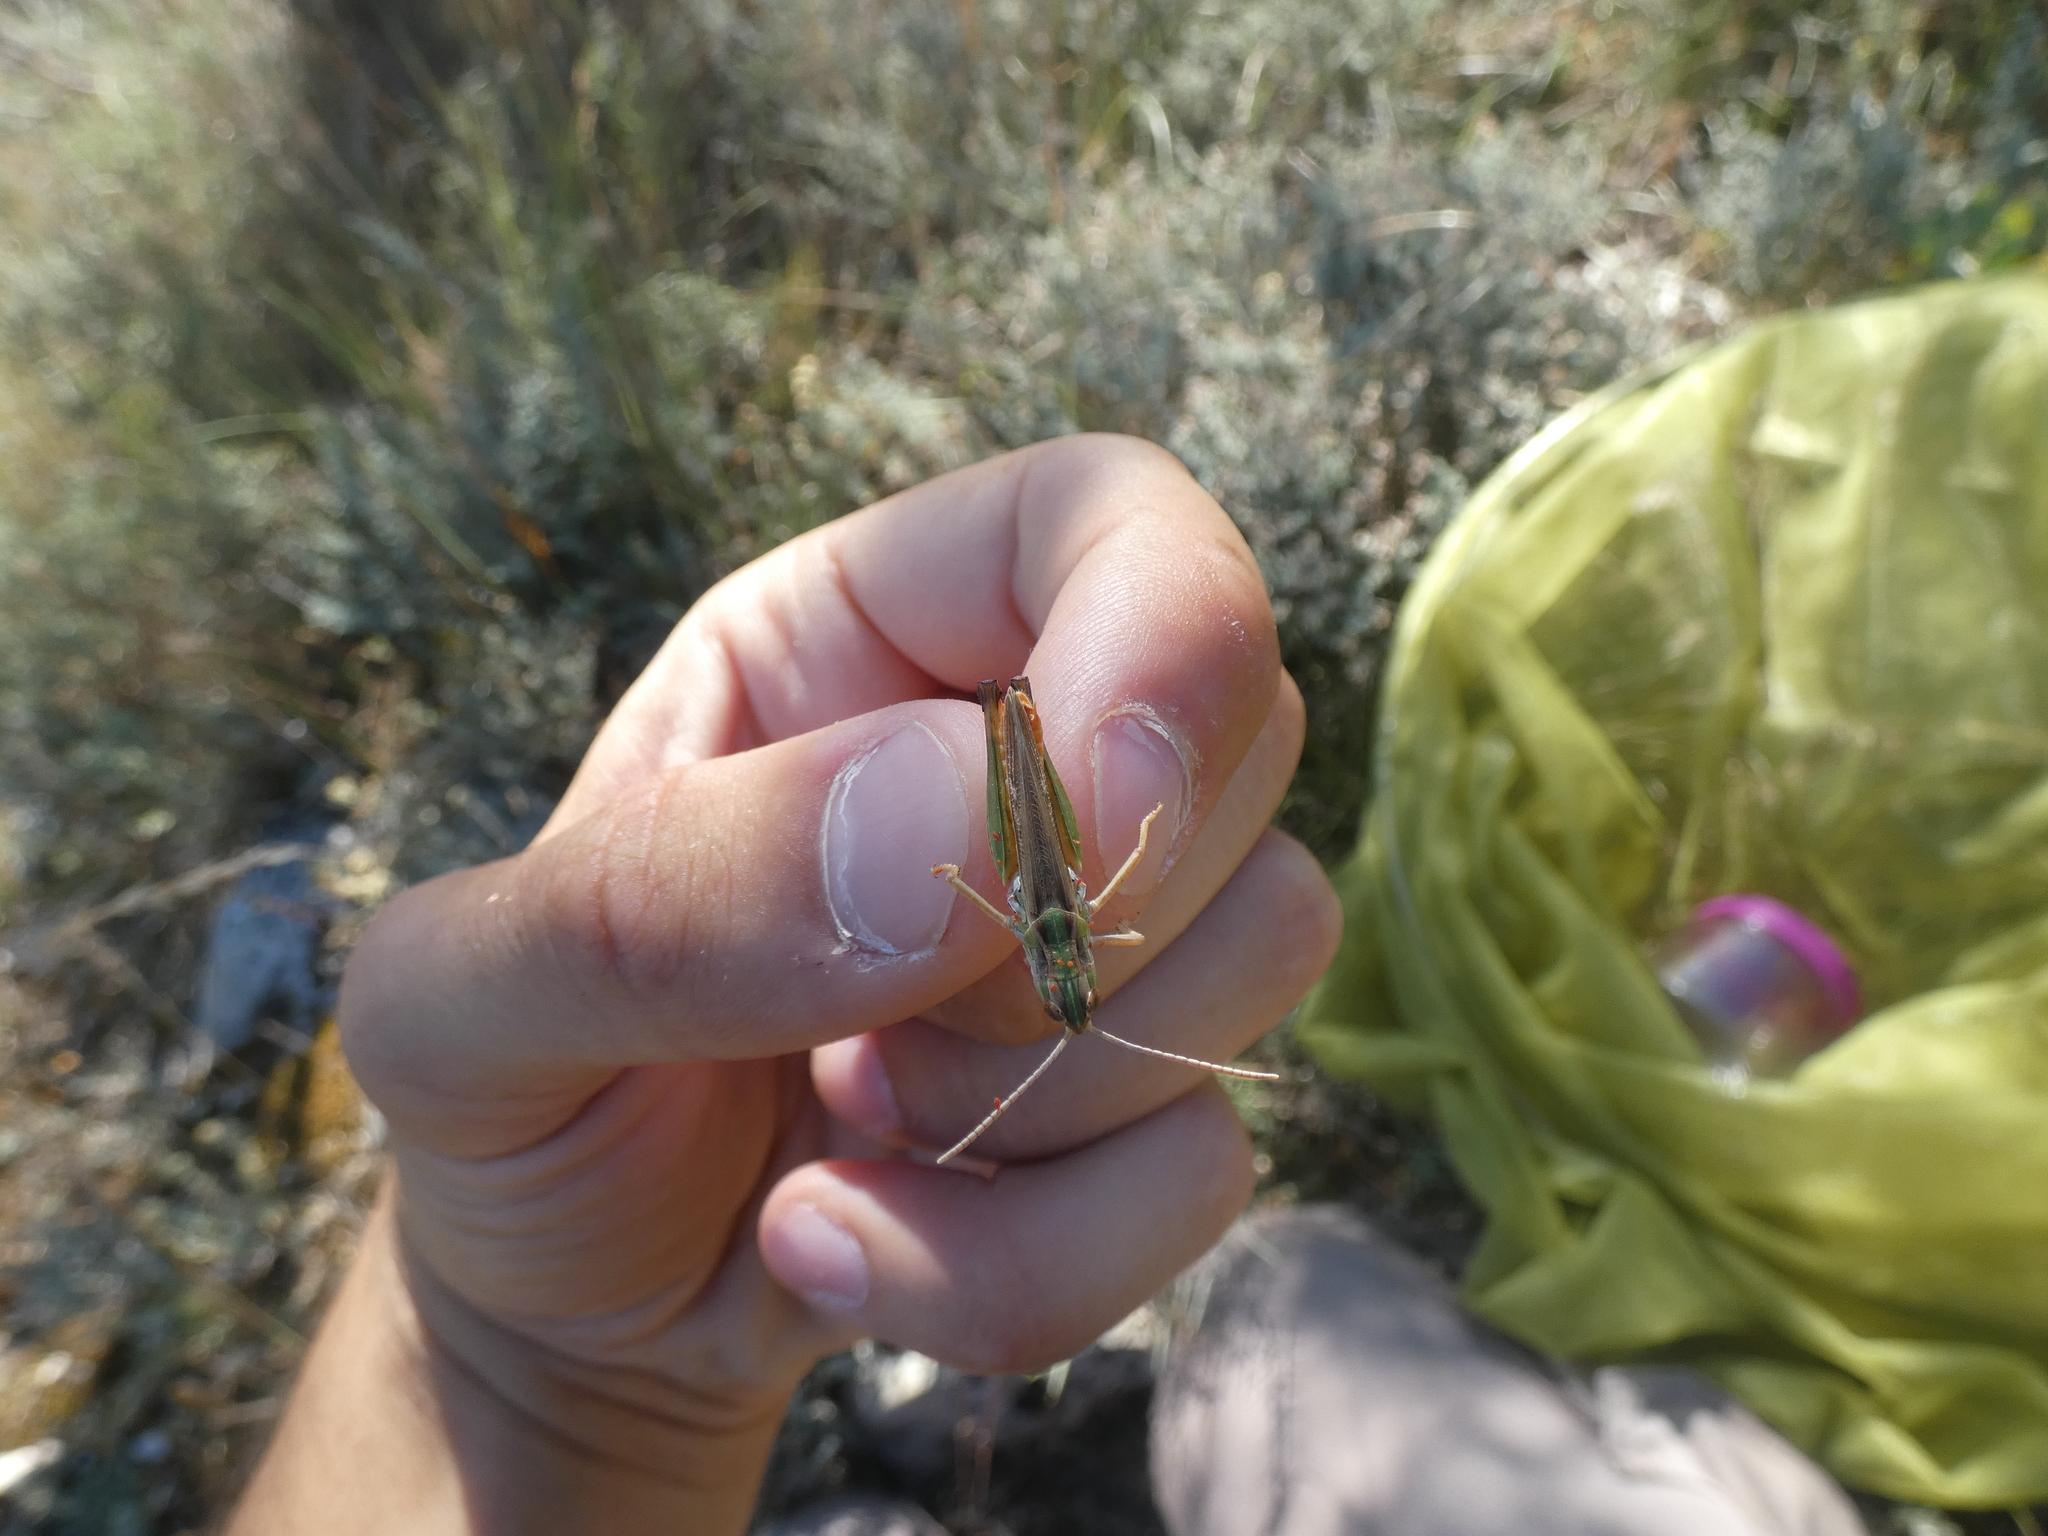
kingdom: Animalia
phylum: Arthropoda
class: Insecta
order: Orthoptera
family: Acrididae
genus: Stenobothrus
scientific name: Stenobothrus fischeri
